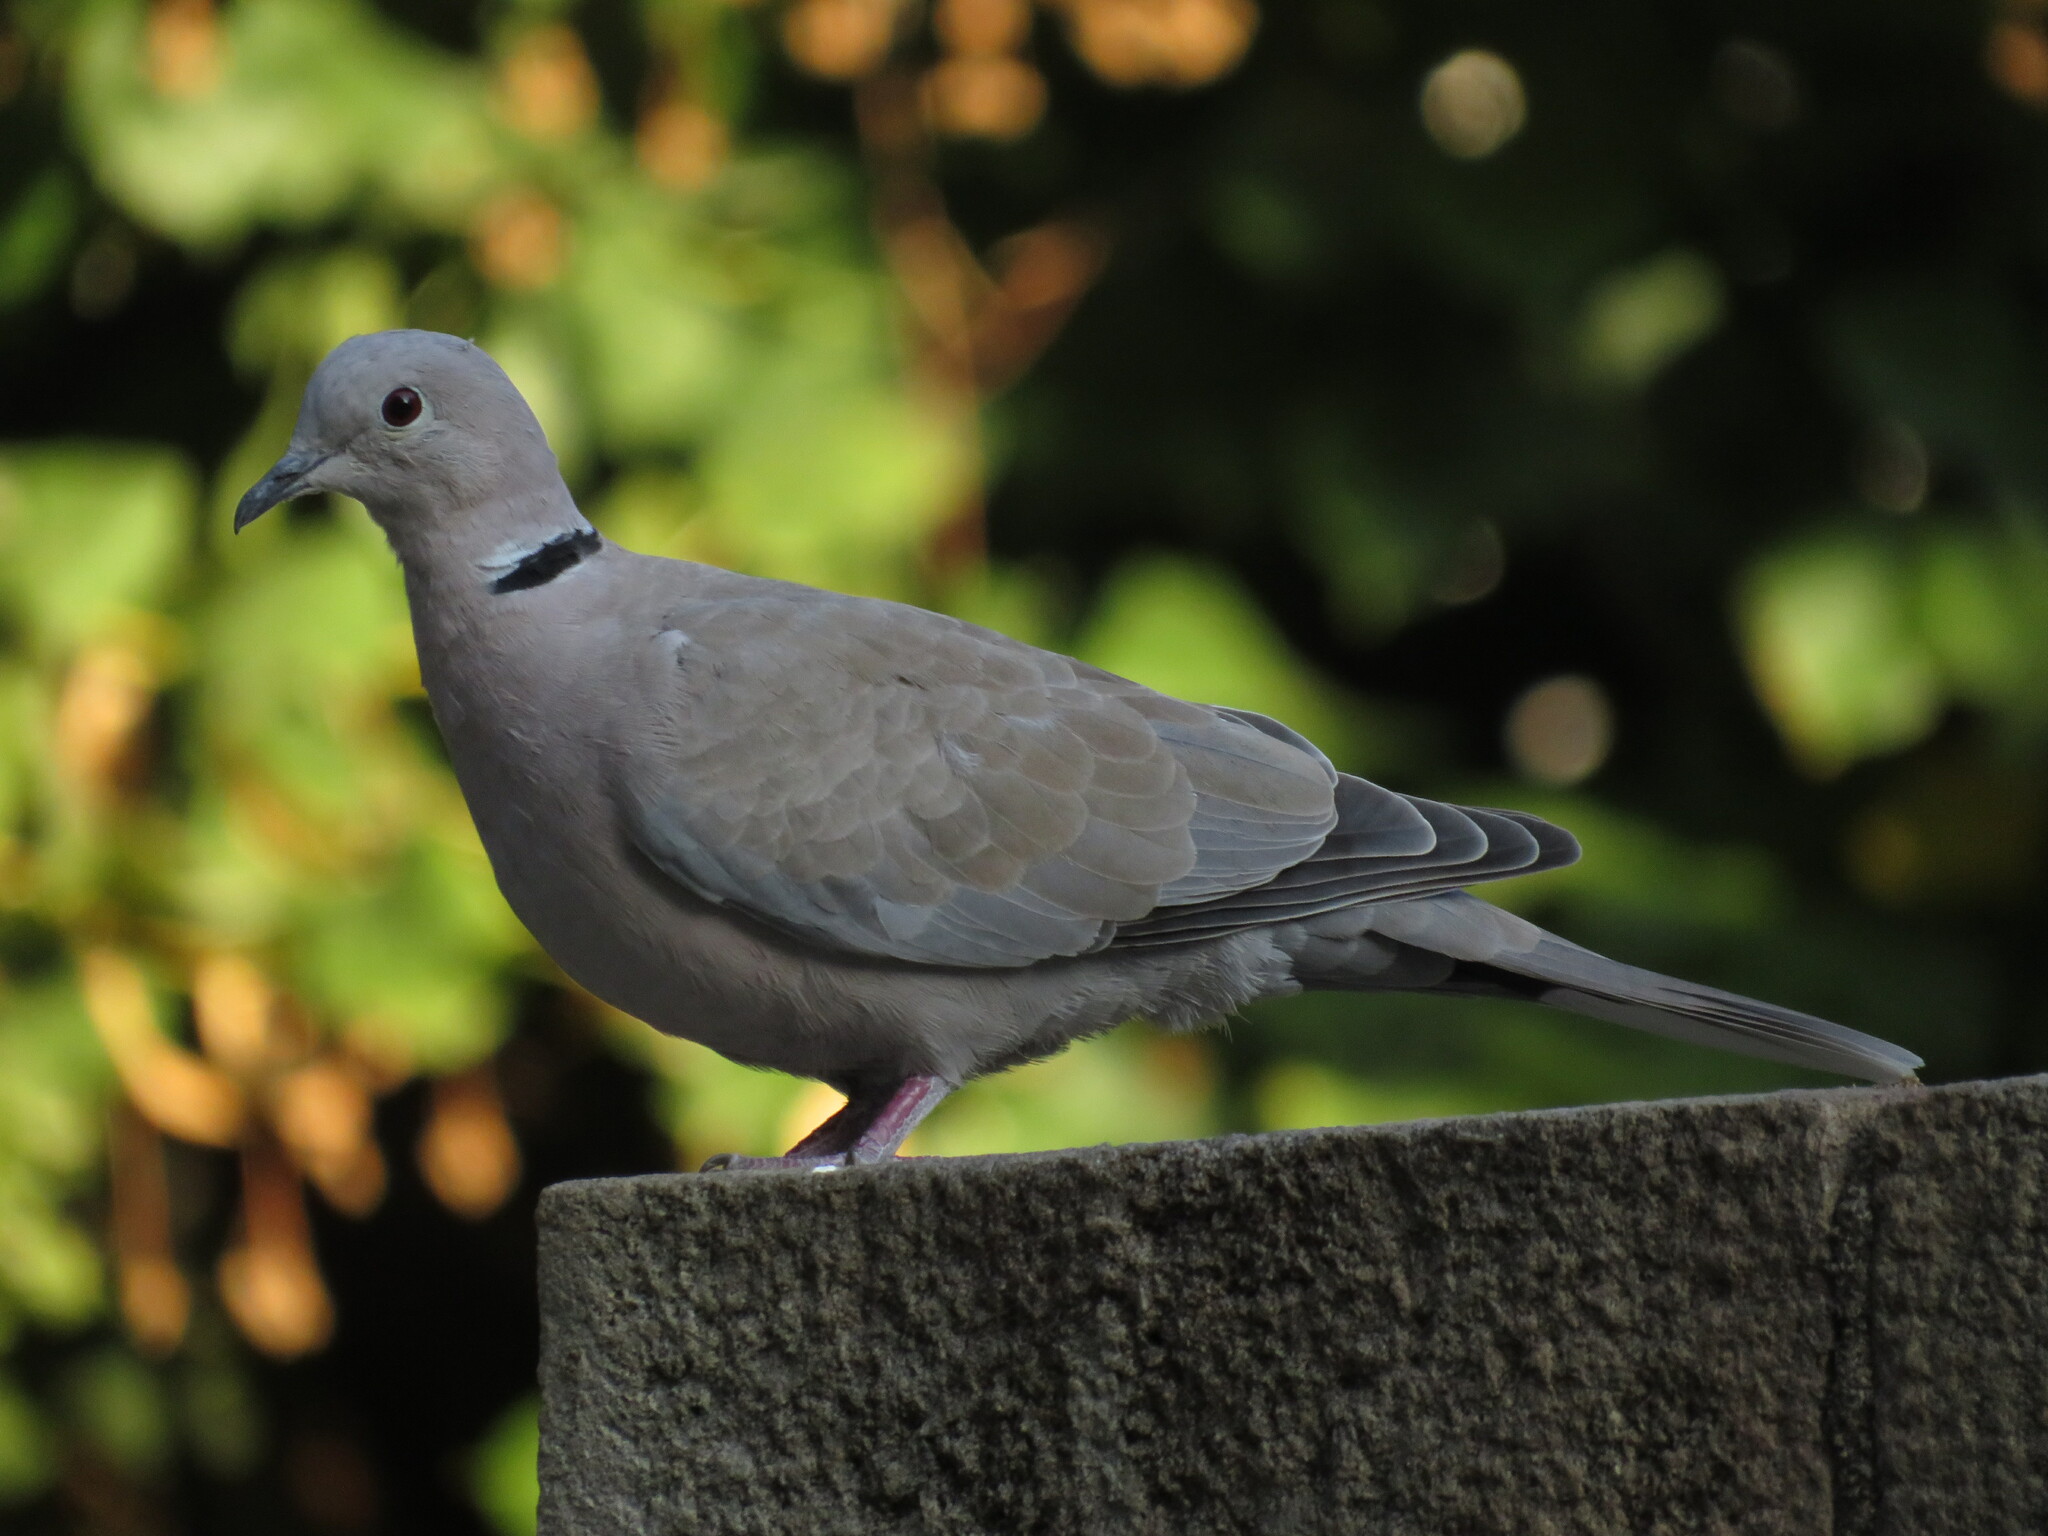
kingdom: Animalia
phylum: Chordata
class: Aves
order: Columbiformes
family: Columbidae
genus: Streptopelia
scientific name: Streptopelia decaocto
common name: Eurasian collared dove
